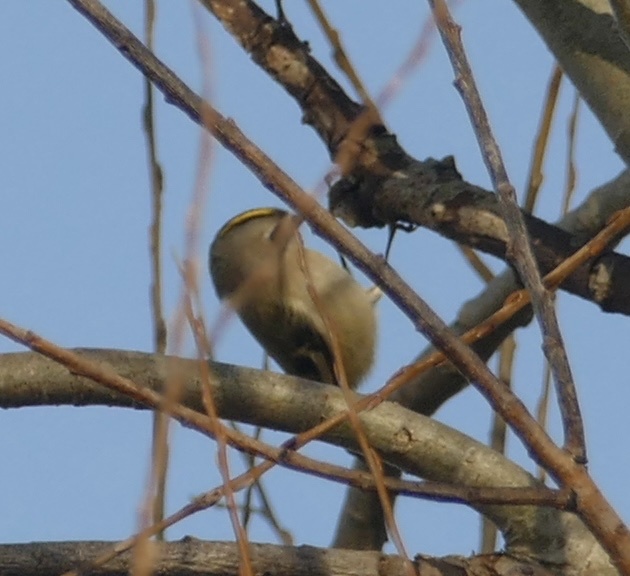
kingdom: Animalia
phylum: Chordata
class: Aves
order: Passeriformes
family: Regulidae
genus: Regulus
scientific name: Regulus regulus
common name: Goldcrest
